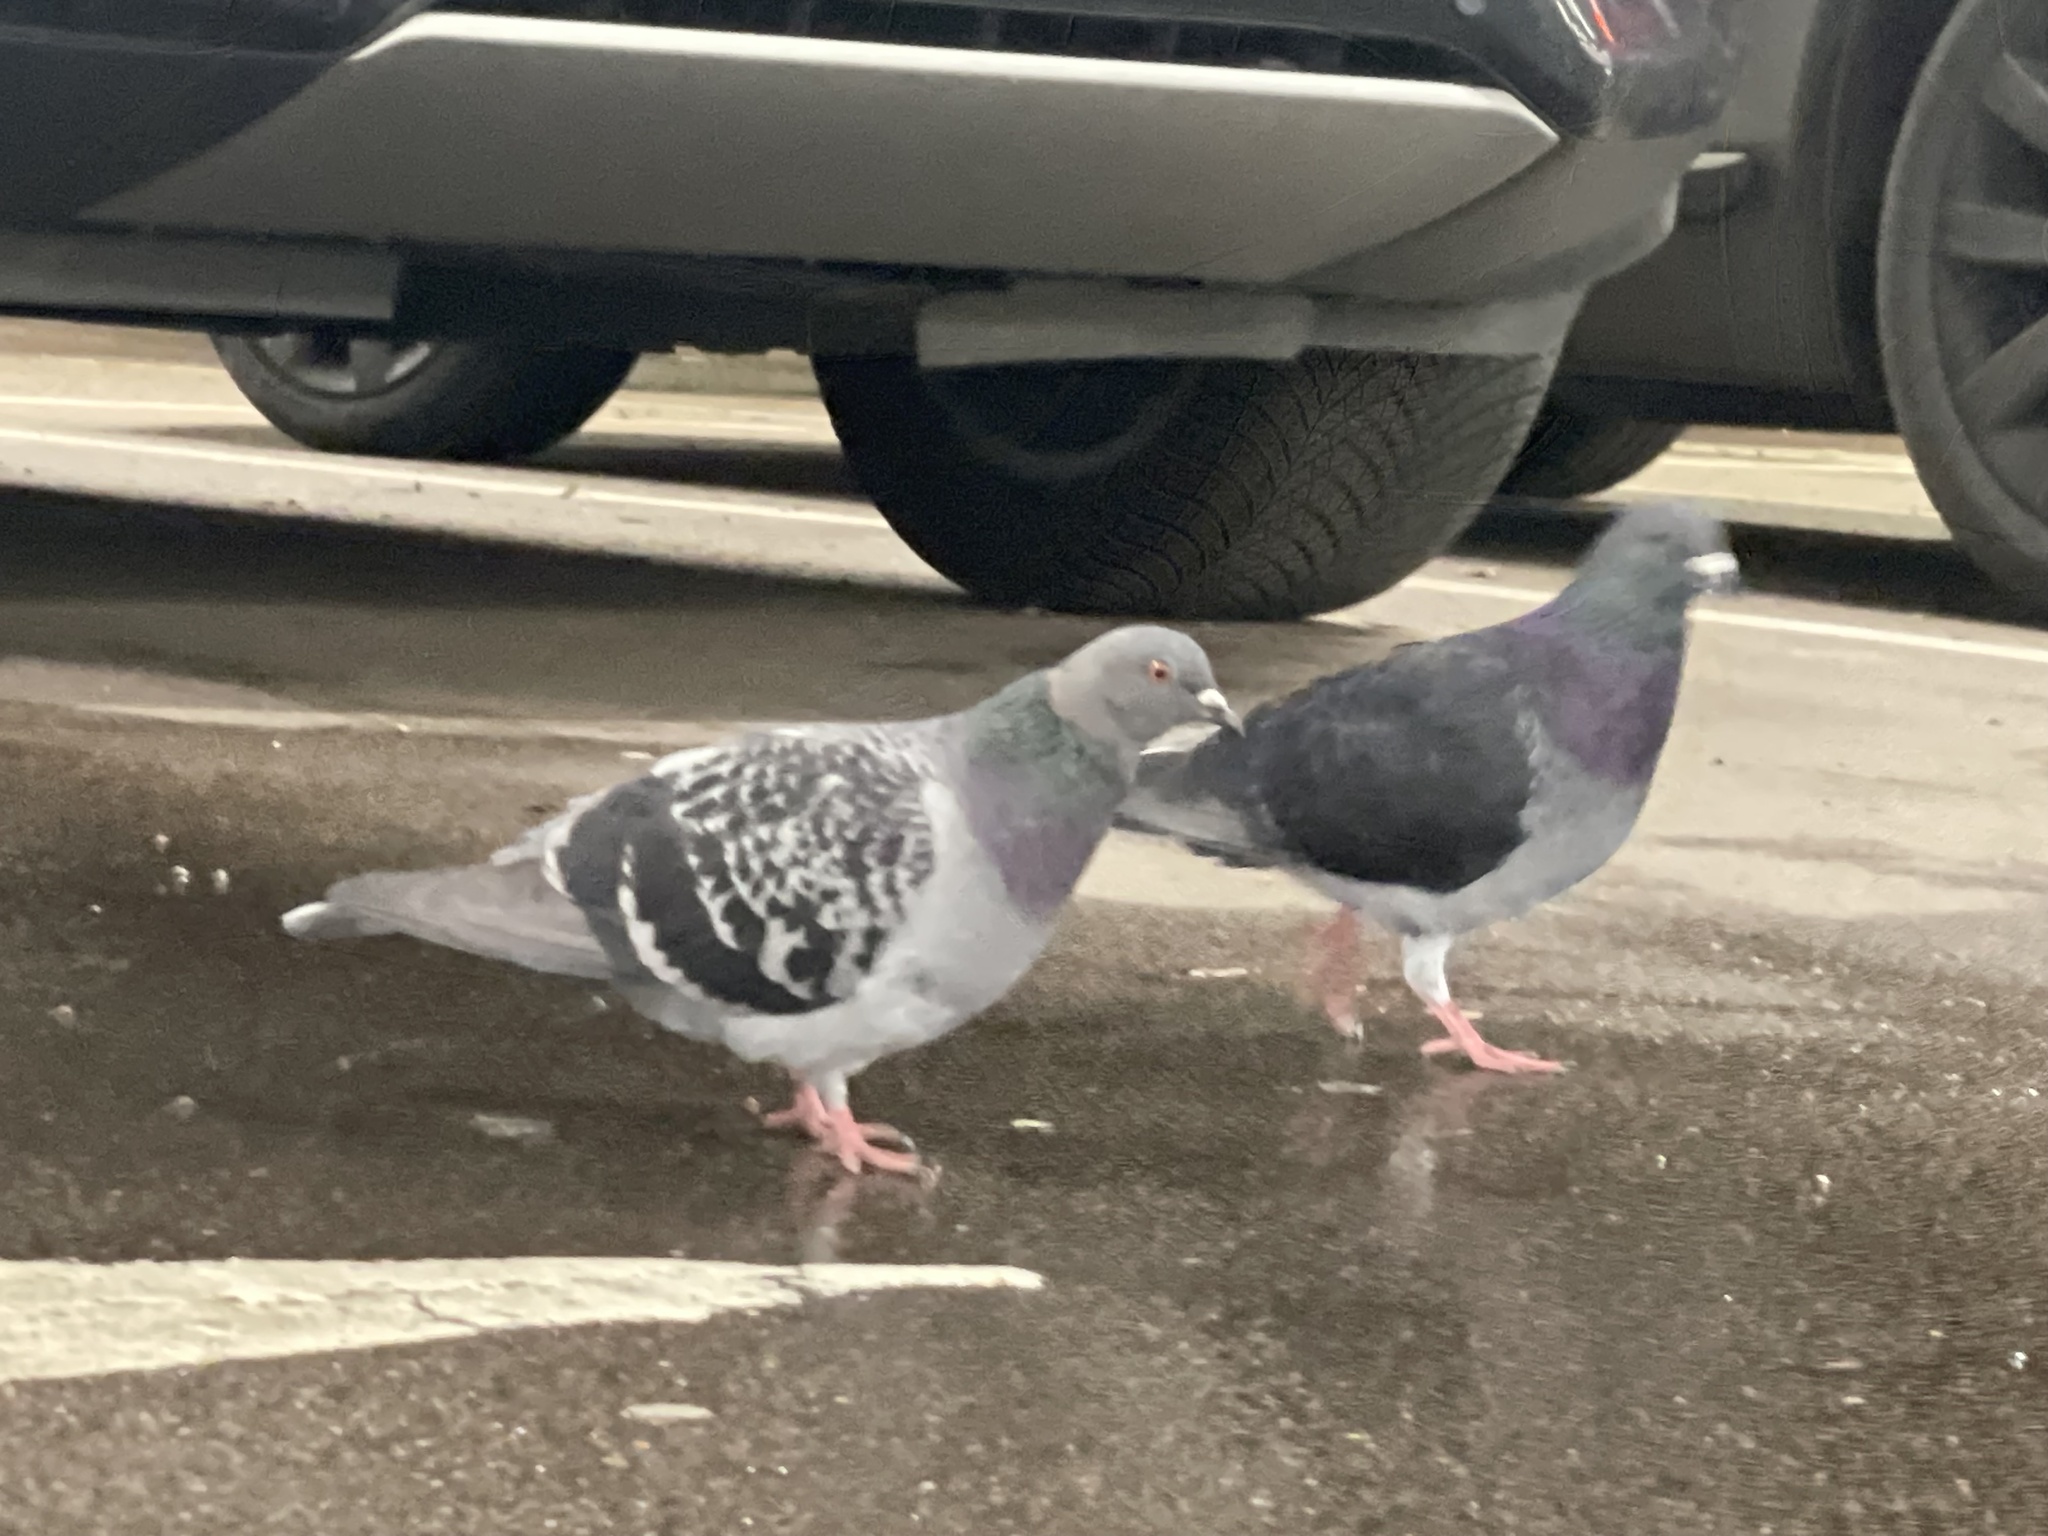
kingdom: Animalia
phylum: Chordata
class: Aves
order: Columbiformes
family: Columbidae
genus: Columba
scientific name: Columba livia
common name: Rock pigeon
